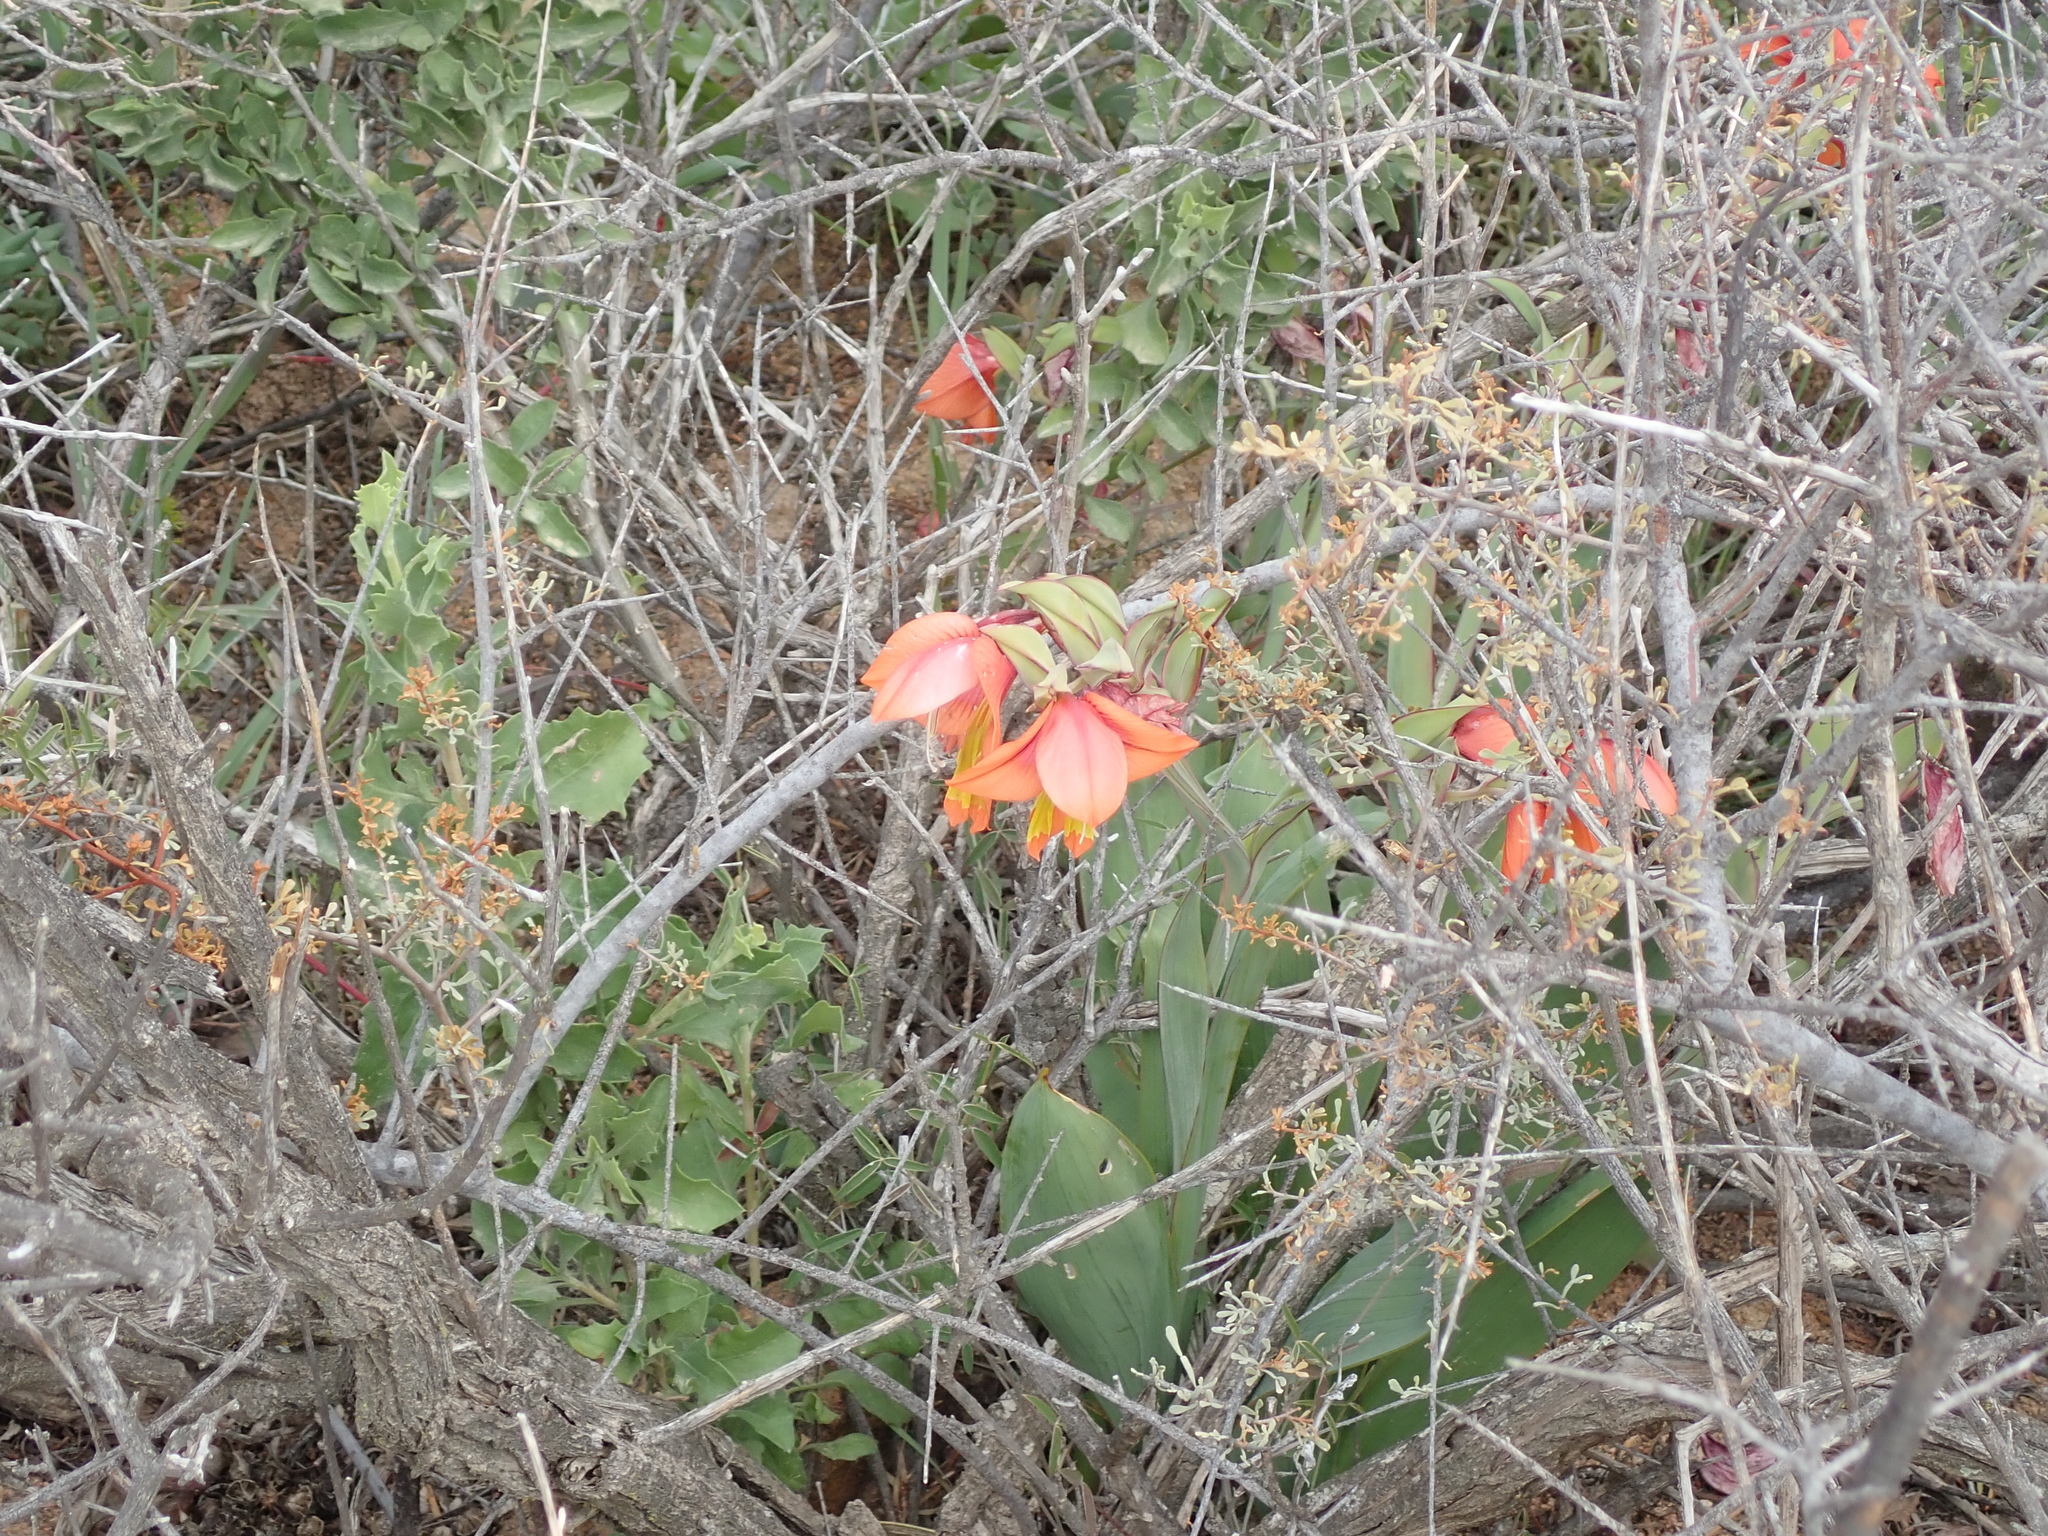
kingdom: Plantae
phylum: Tracheophyta
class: Liliopsida
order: Asparagales
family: Iridaceae
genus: Gladiolus
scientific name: Gladiolus equitans
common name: Large red kalkoentjie
